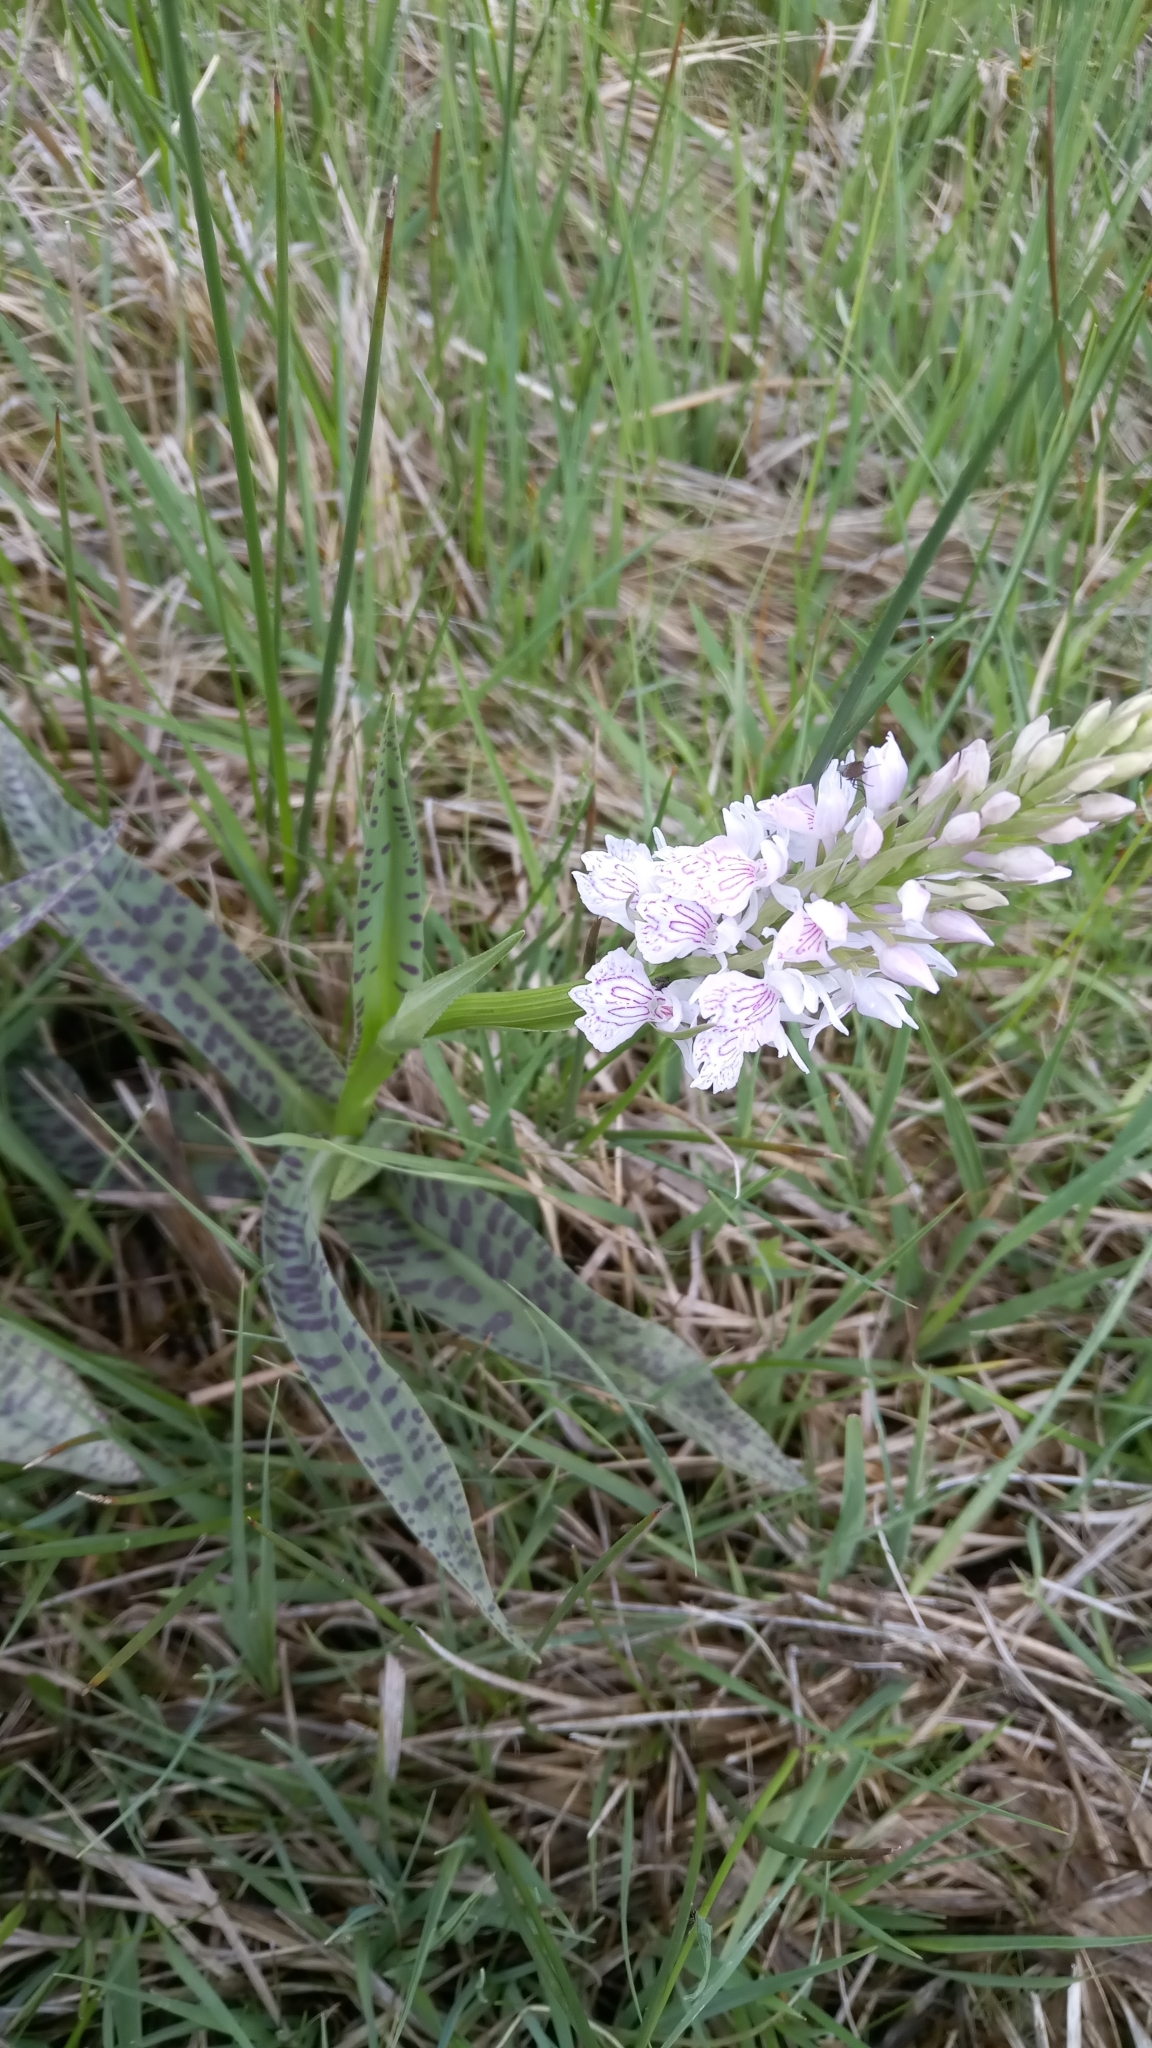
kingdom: Plantae
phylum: Tracheophyta
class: Liliopsida
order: Asparagales
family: Orchidaceae
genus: Dactylorhiza
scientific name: Dactylorhiza maculata
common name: Heath spotted-orchid
